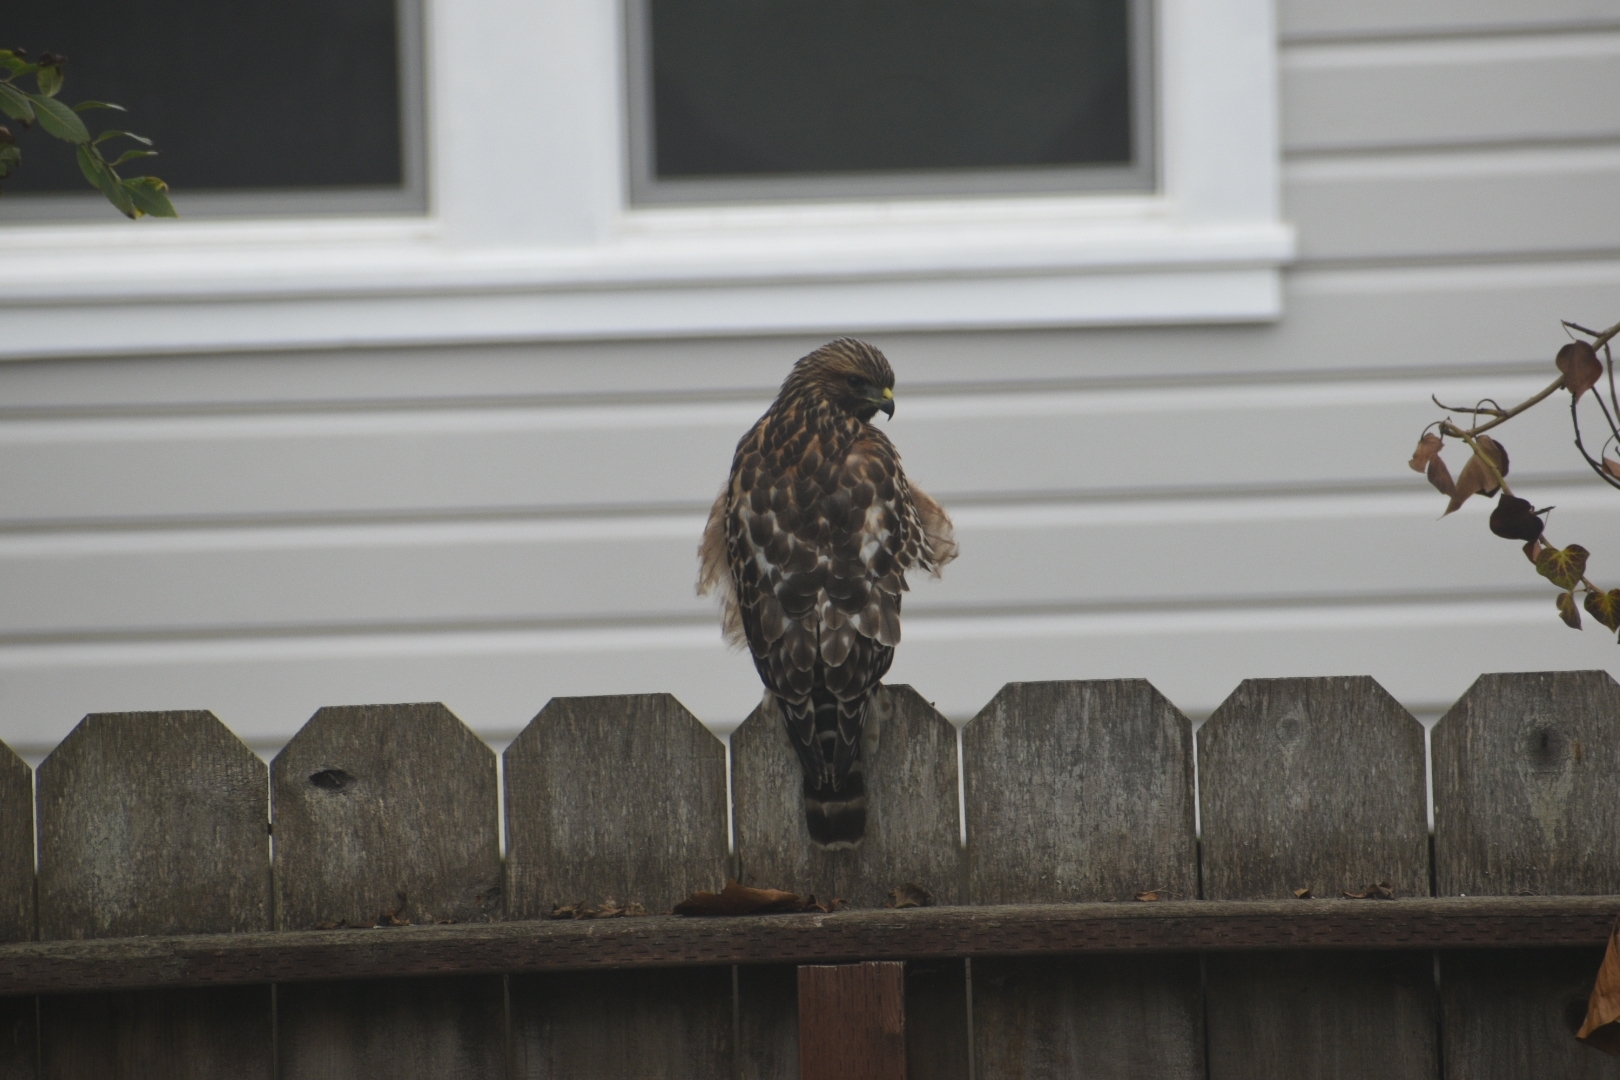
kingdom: Animalia
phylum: Chordata
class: Aves
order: Accipitriformes
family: Accipitridae
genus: Buteo
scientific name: Buteo lineatus
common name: Red-shouldered hawk
